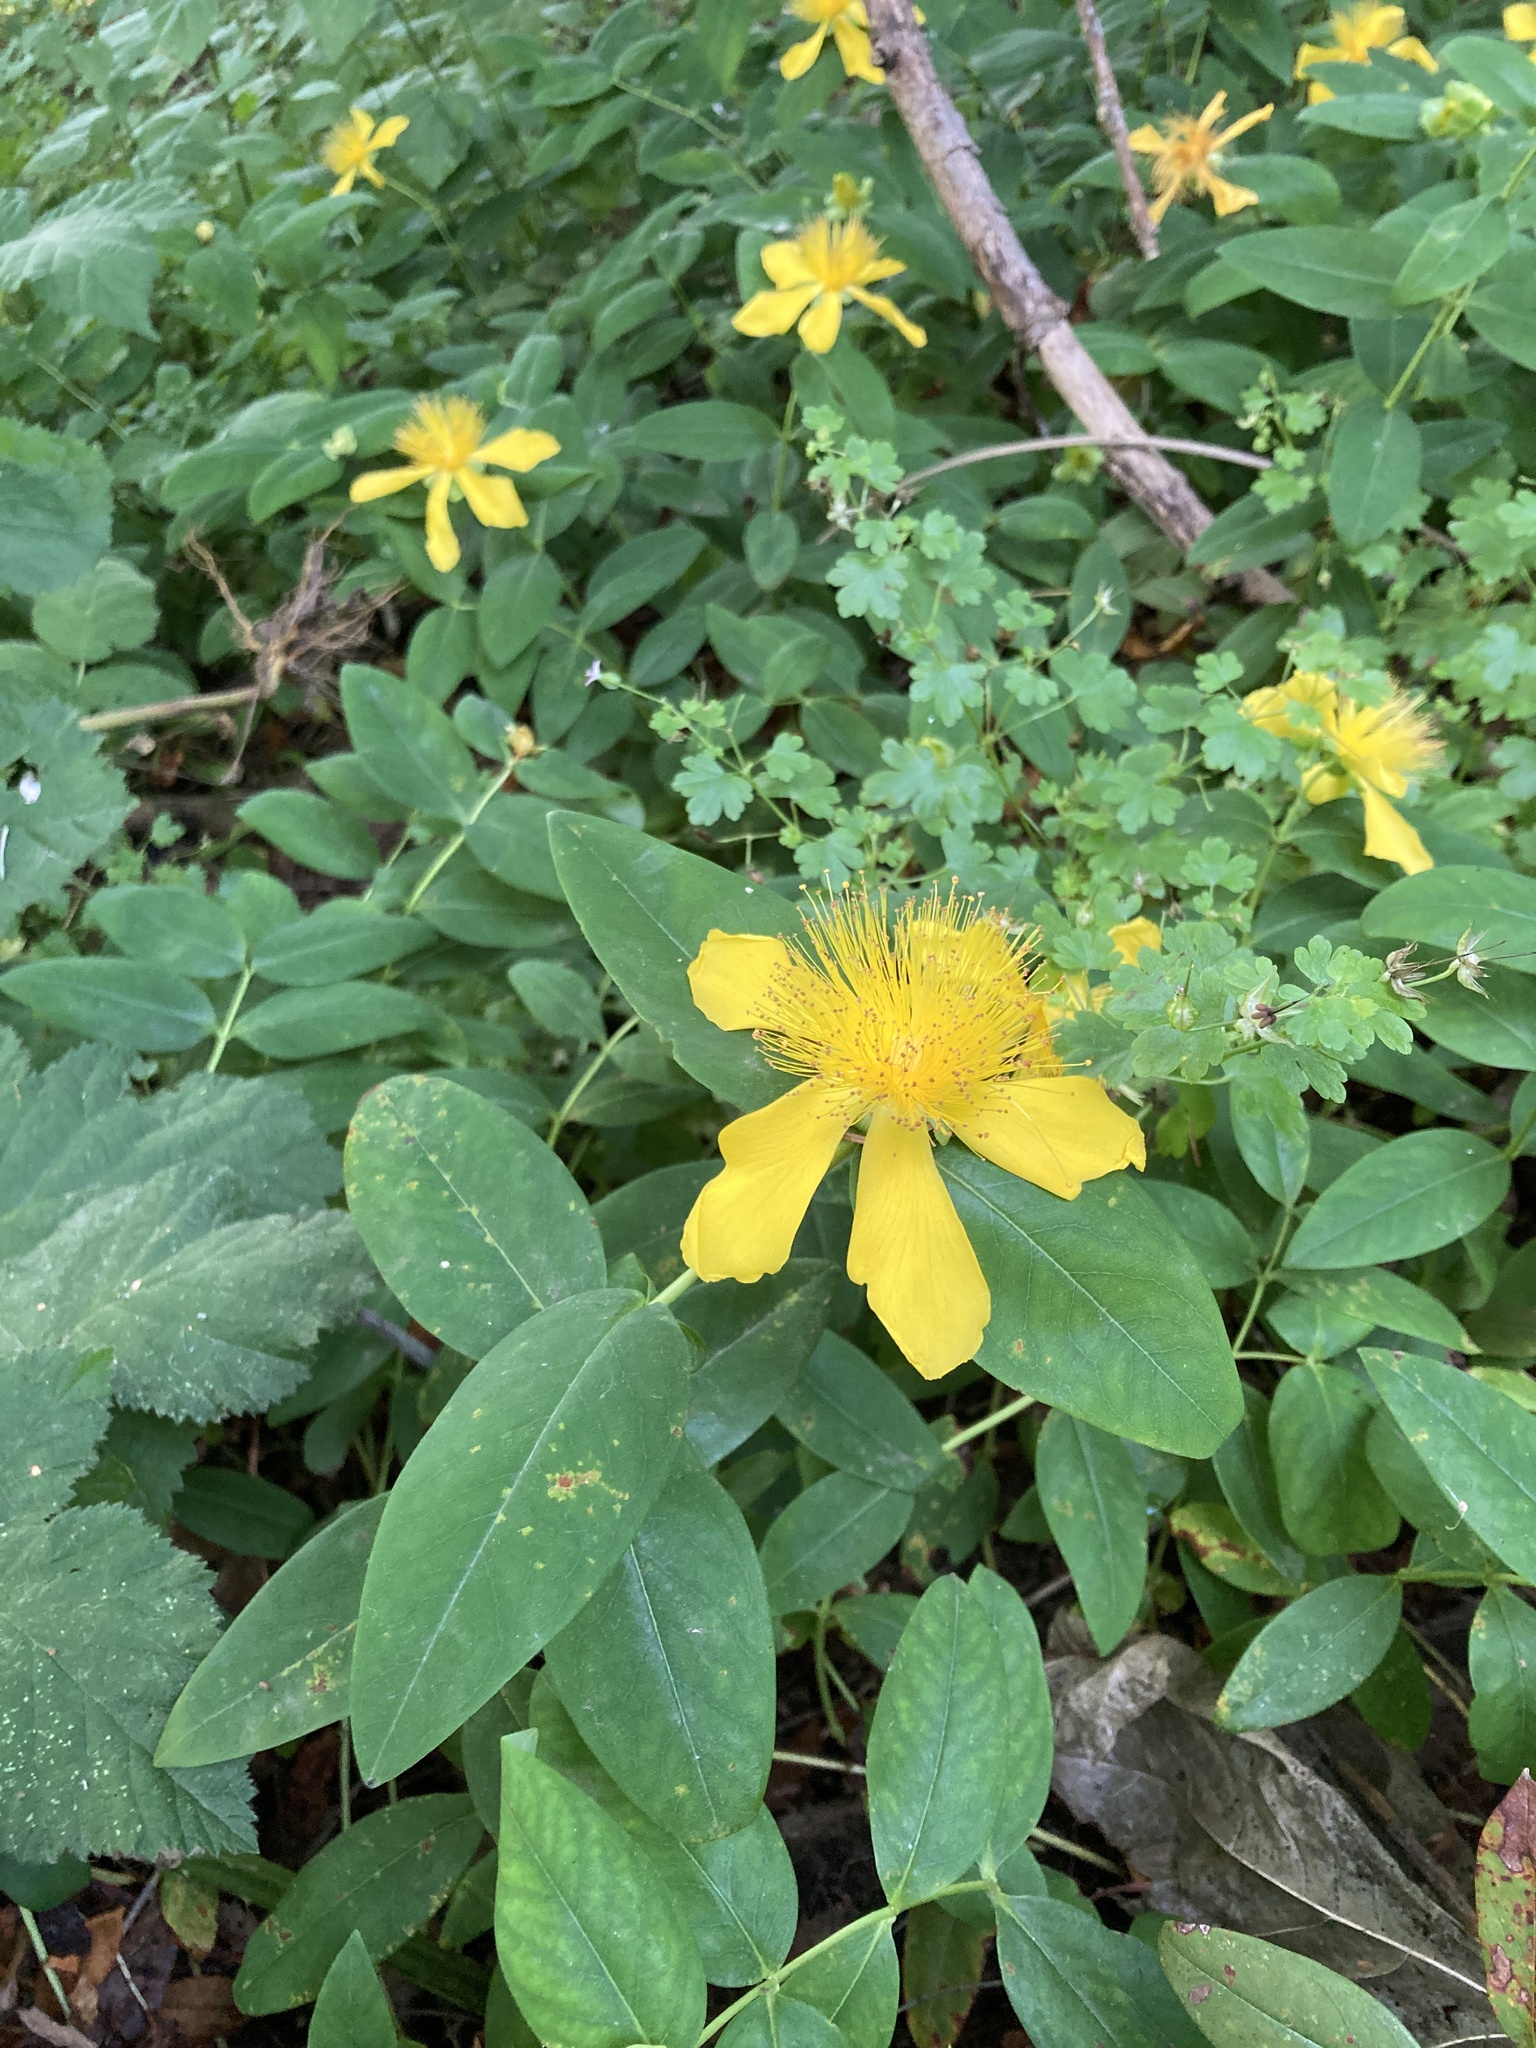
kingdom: Plantae
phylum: Tracheophyta
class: Magnoliopsida
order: Malpighiales
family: Hypericaceae
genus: Hypericum
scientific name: Hypericum calycinum
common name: Rose-of-sharon
